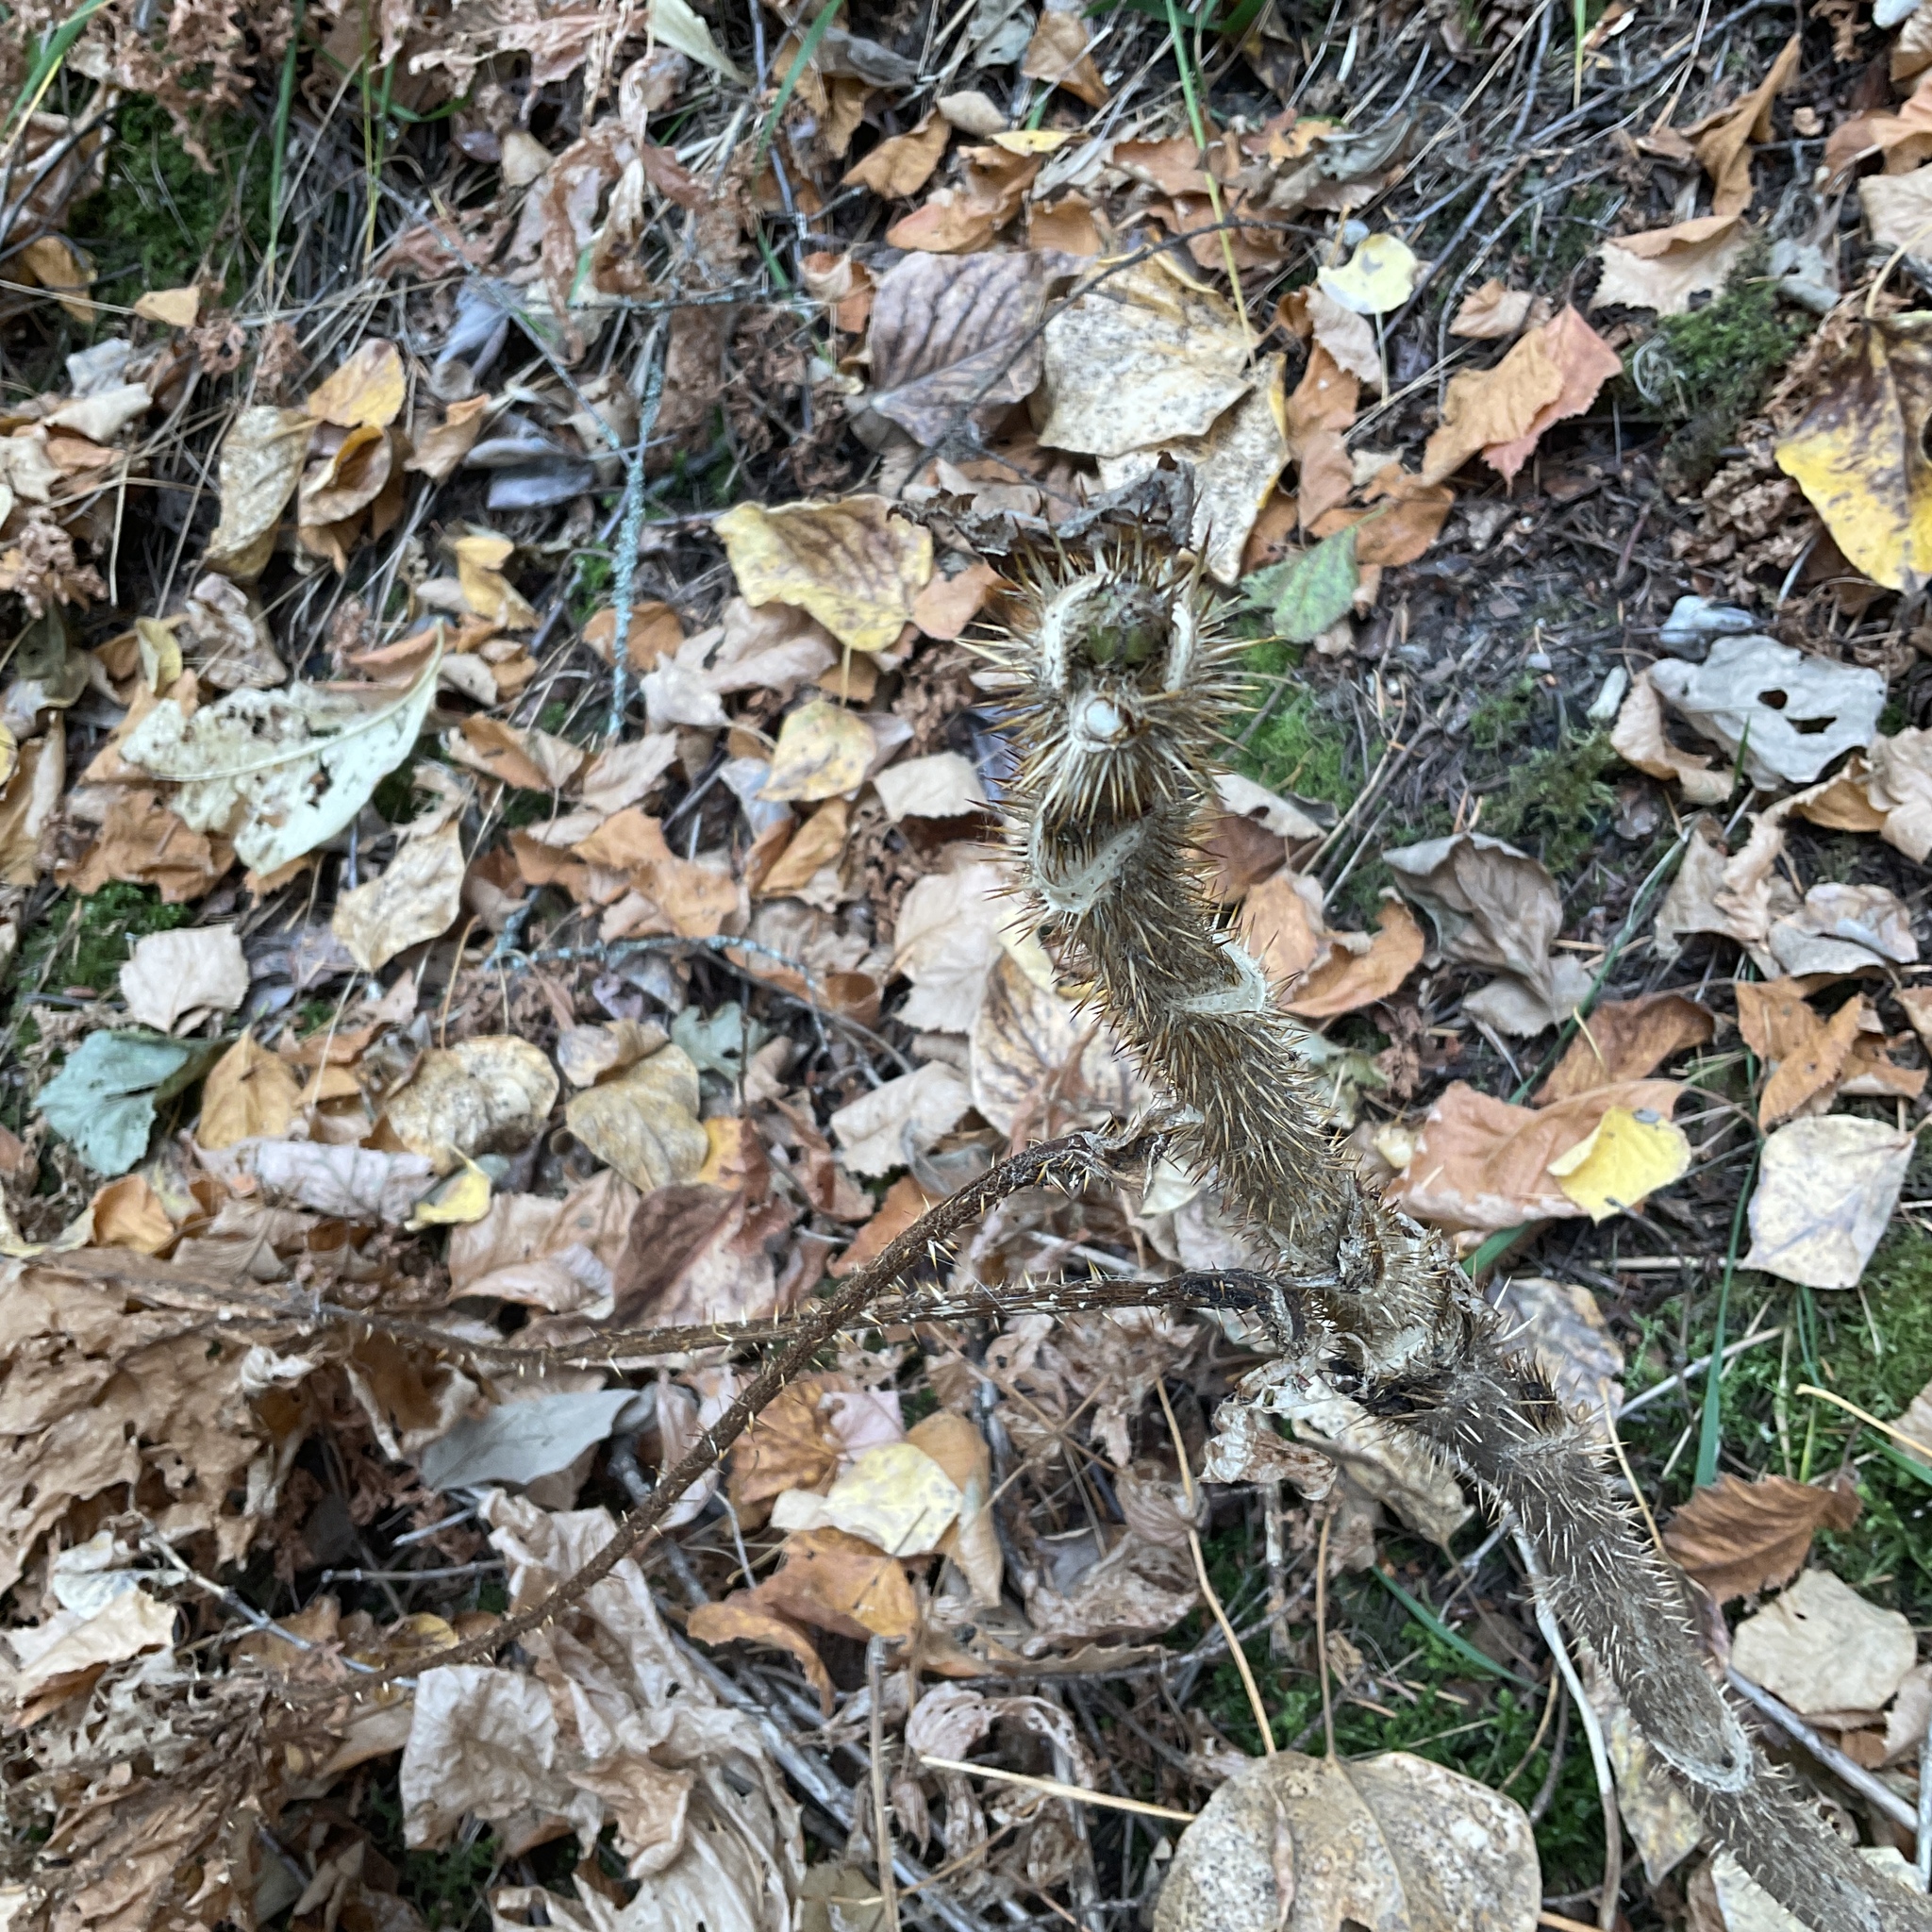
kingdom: Plantae
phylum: Tracheophyta
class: Magnoliopsida
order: Apiales
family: Araliaceae
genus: Oplopanax
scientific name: Oplopanax horridus
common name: Devil's walking-stick
